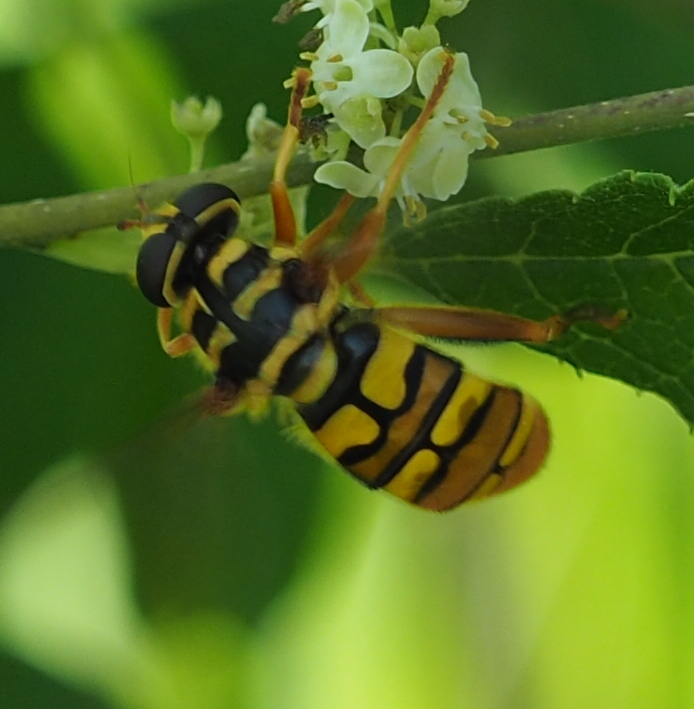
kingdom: Animalia
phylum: Arthropoda
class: Insecta
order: Diptera
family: Syrphidae
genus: Milesia
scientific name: Milesia virginiensis
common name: Virginia giant
